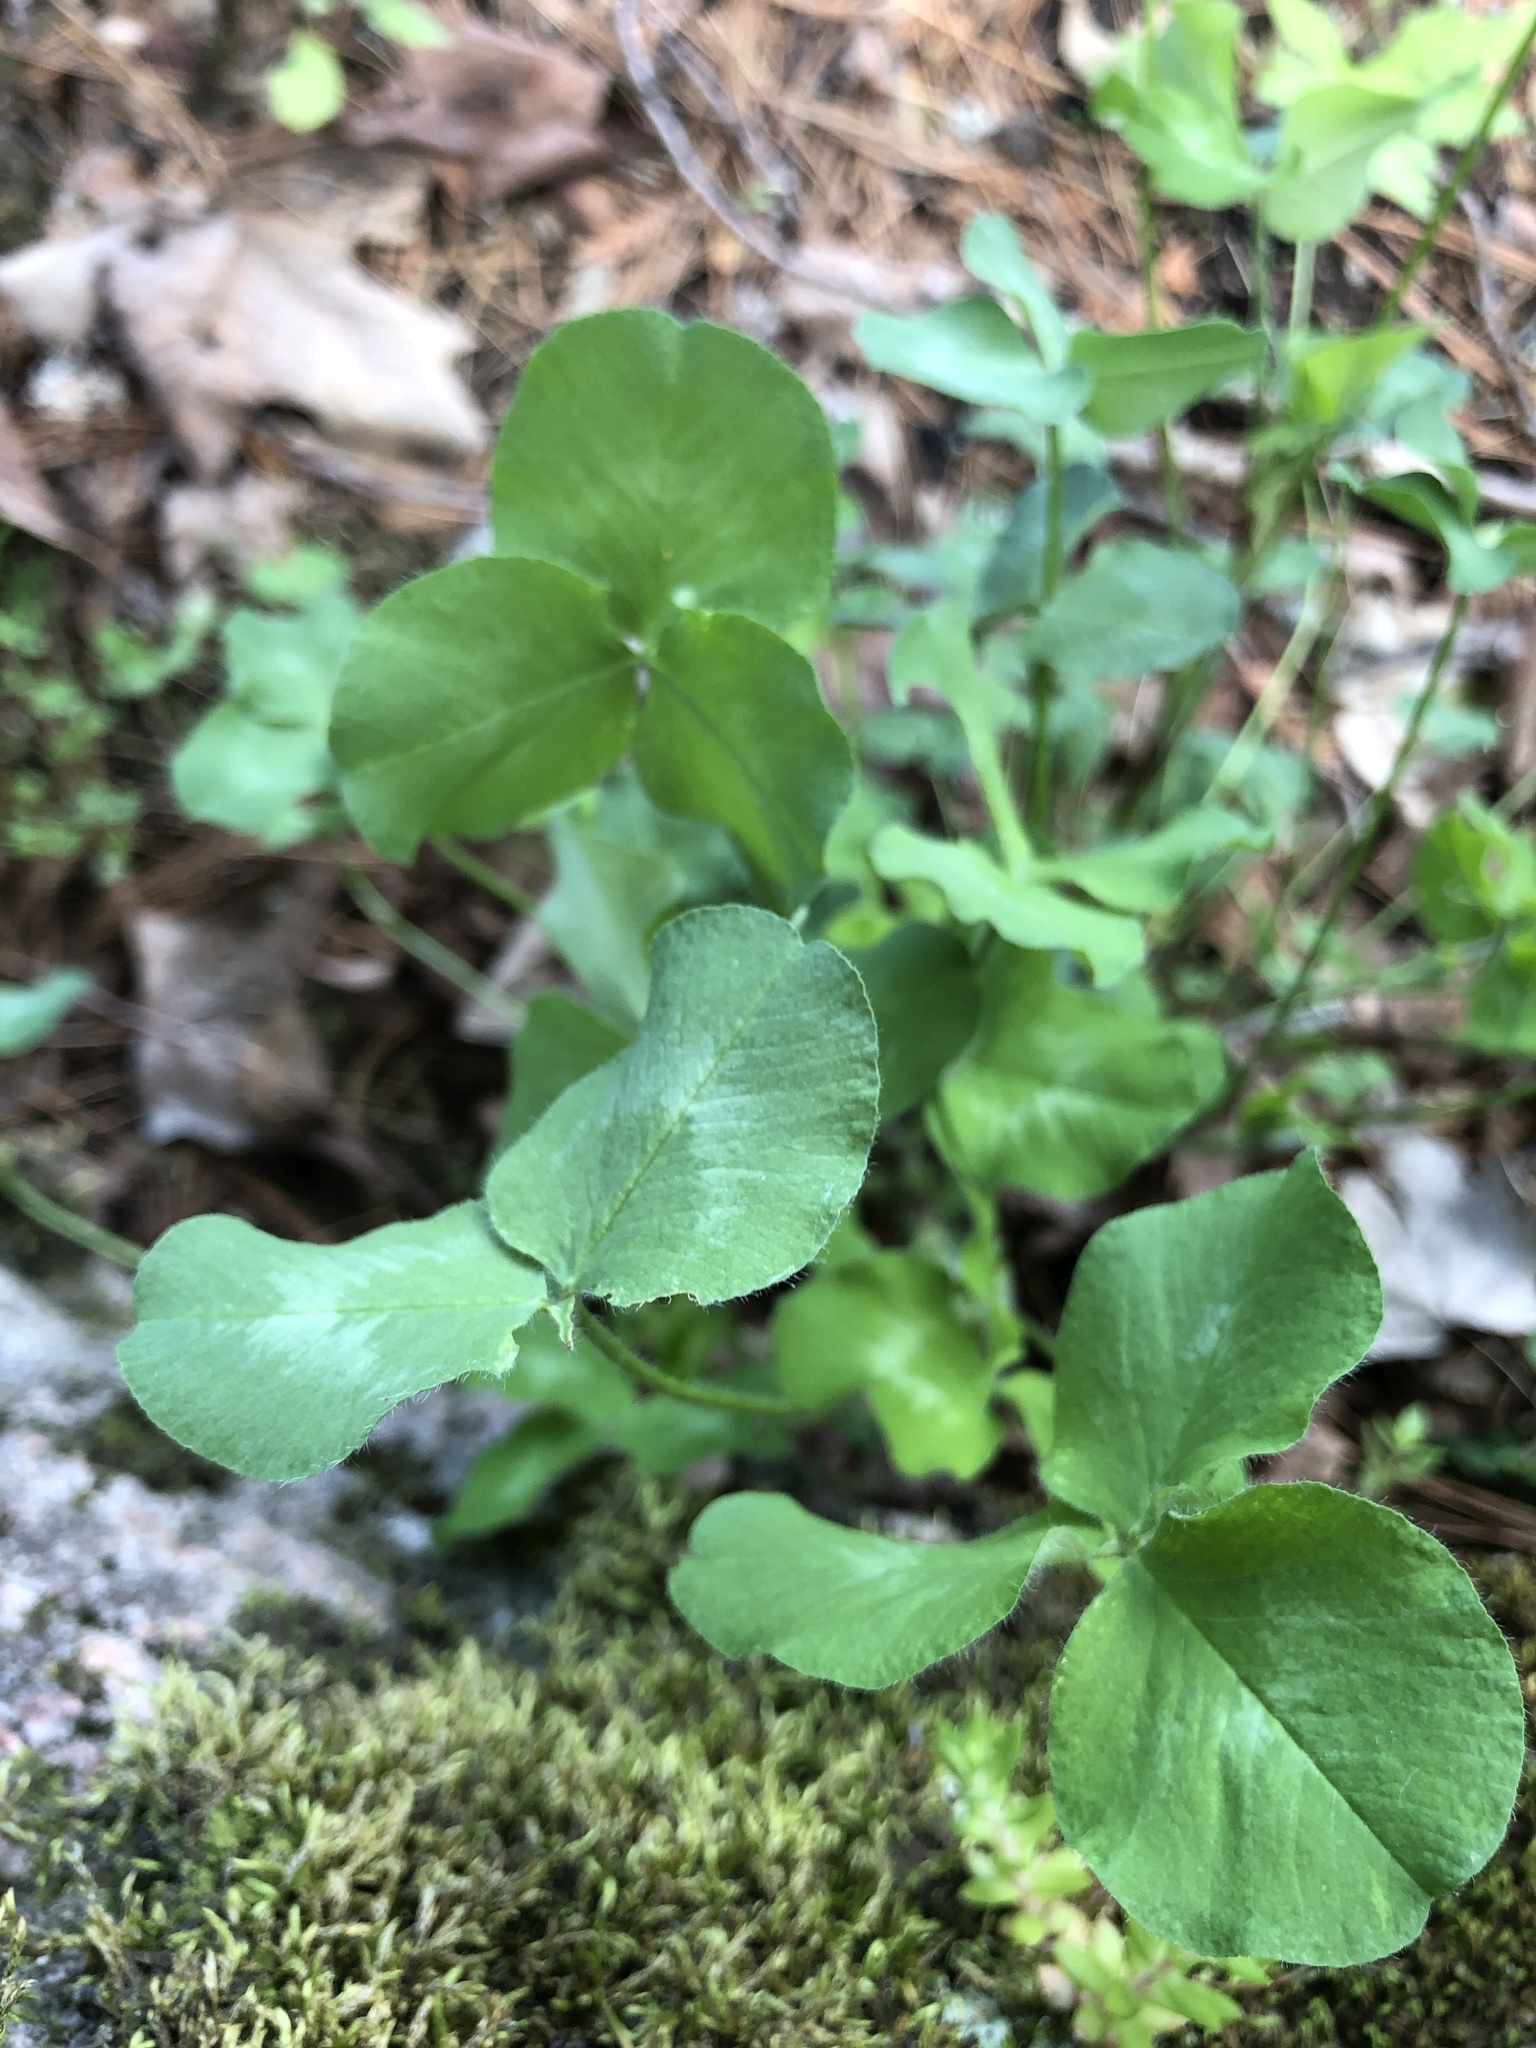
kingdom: Plantae
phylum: Tracheophyta
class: Magnoliopsida
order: Fabales
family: Fabaceae
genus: Trifolium
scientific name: Trifolium pratense
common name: Red clover
